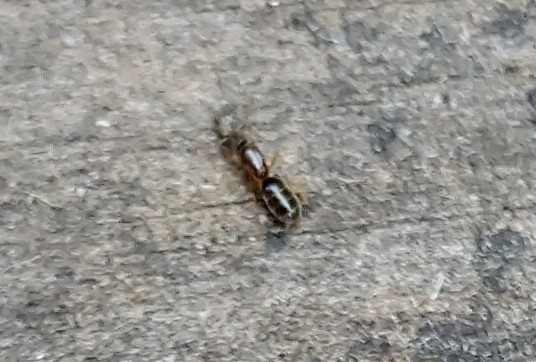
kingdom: Animalia
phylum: Arthropoda
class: Insecta
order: Hymenoptera
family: Formicidae
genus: Tapinoma
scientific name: Tapinoma sessile
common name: Odorous house ant
